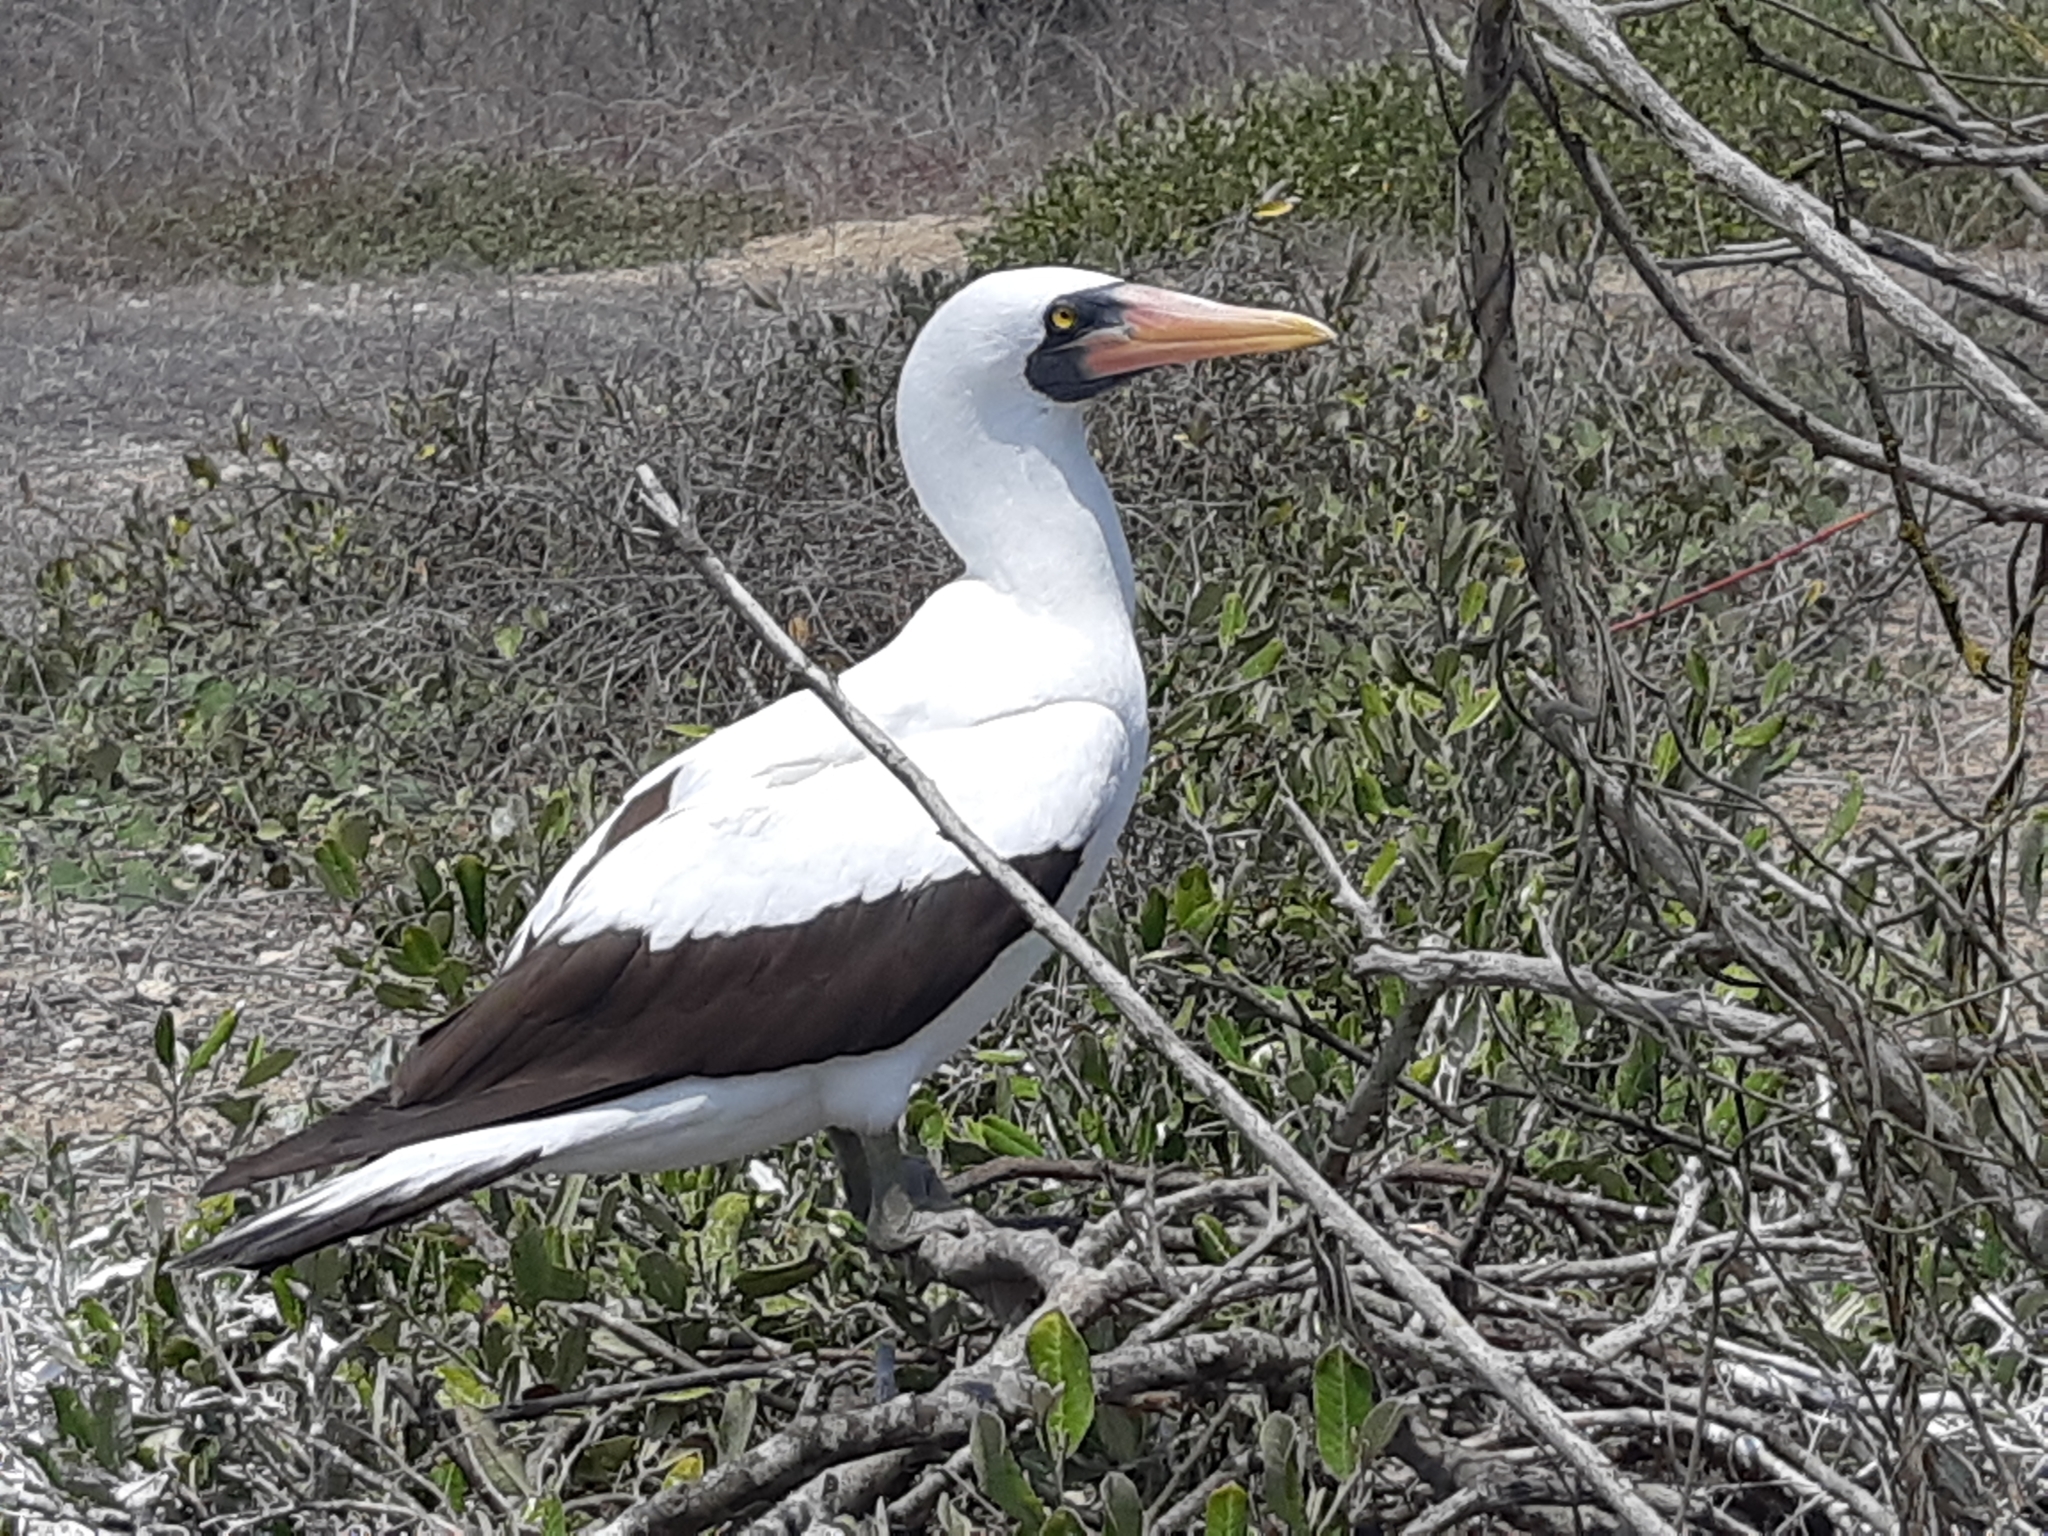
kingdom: Animalia
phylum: Chordata
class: Aves
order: Suliformes
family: Sulidae
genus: Sula
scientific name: Sula granti
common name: Nazca booby
